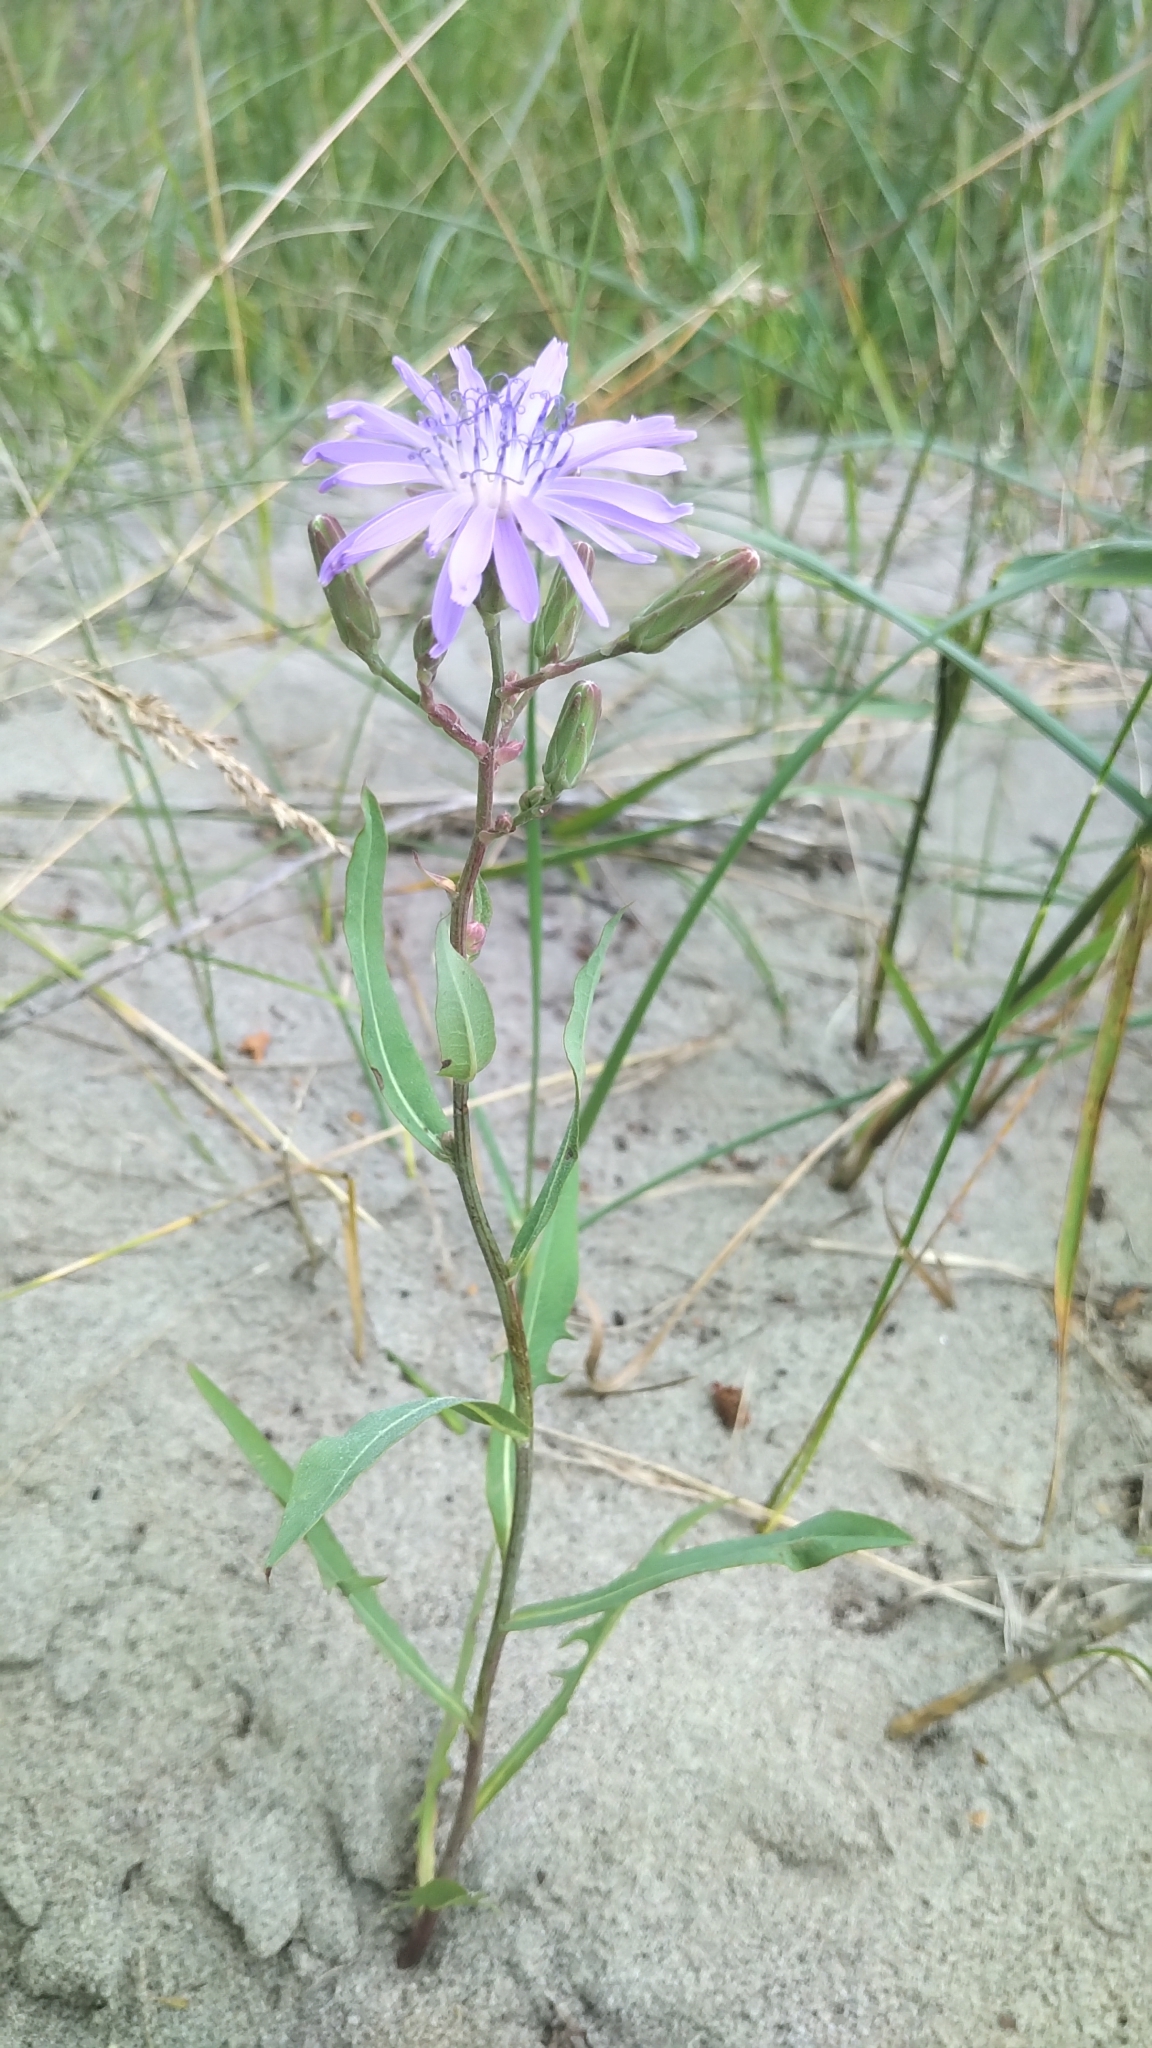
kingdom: Plantae
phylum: Tracheophyta
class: Magnoliopsida
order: Asterales
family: Asteraceae
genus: Lactuca
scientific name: Lactuca pulchella
